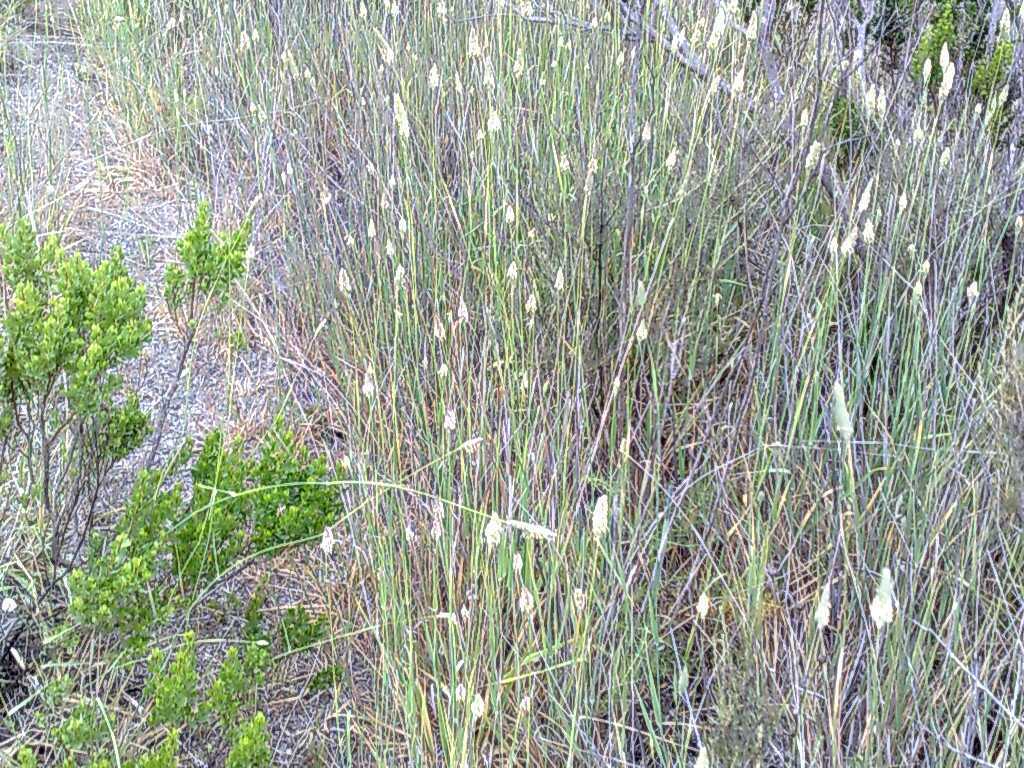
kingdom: Plantae
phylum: Tracheophyta
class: Liliopsida
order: Poales
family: Poaceae
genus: Phalaris
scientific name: Phalaris aquatica
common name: Bulbous canary-grass
